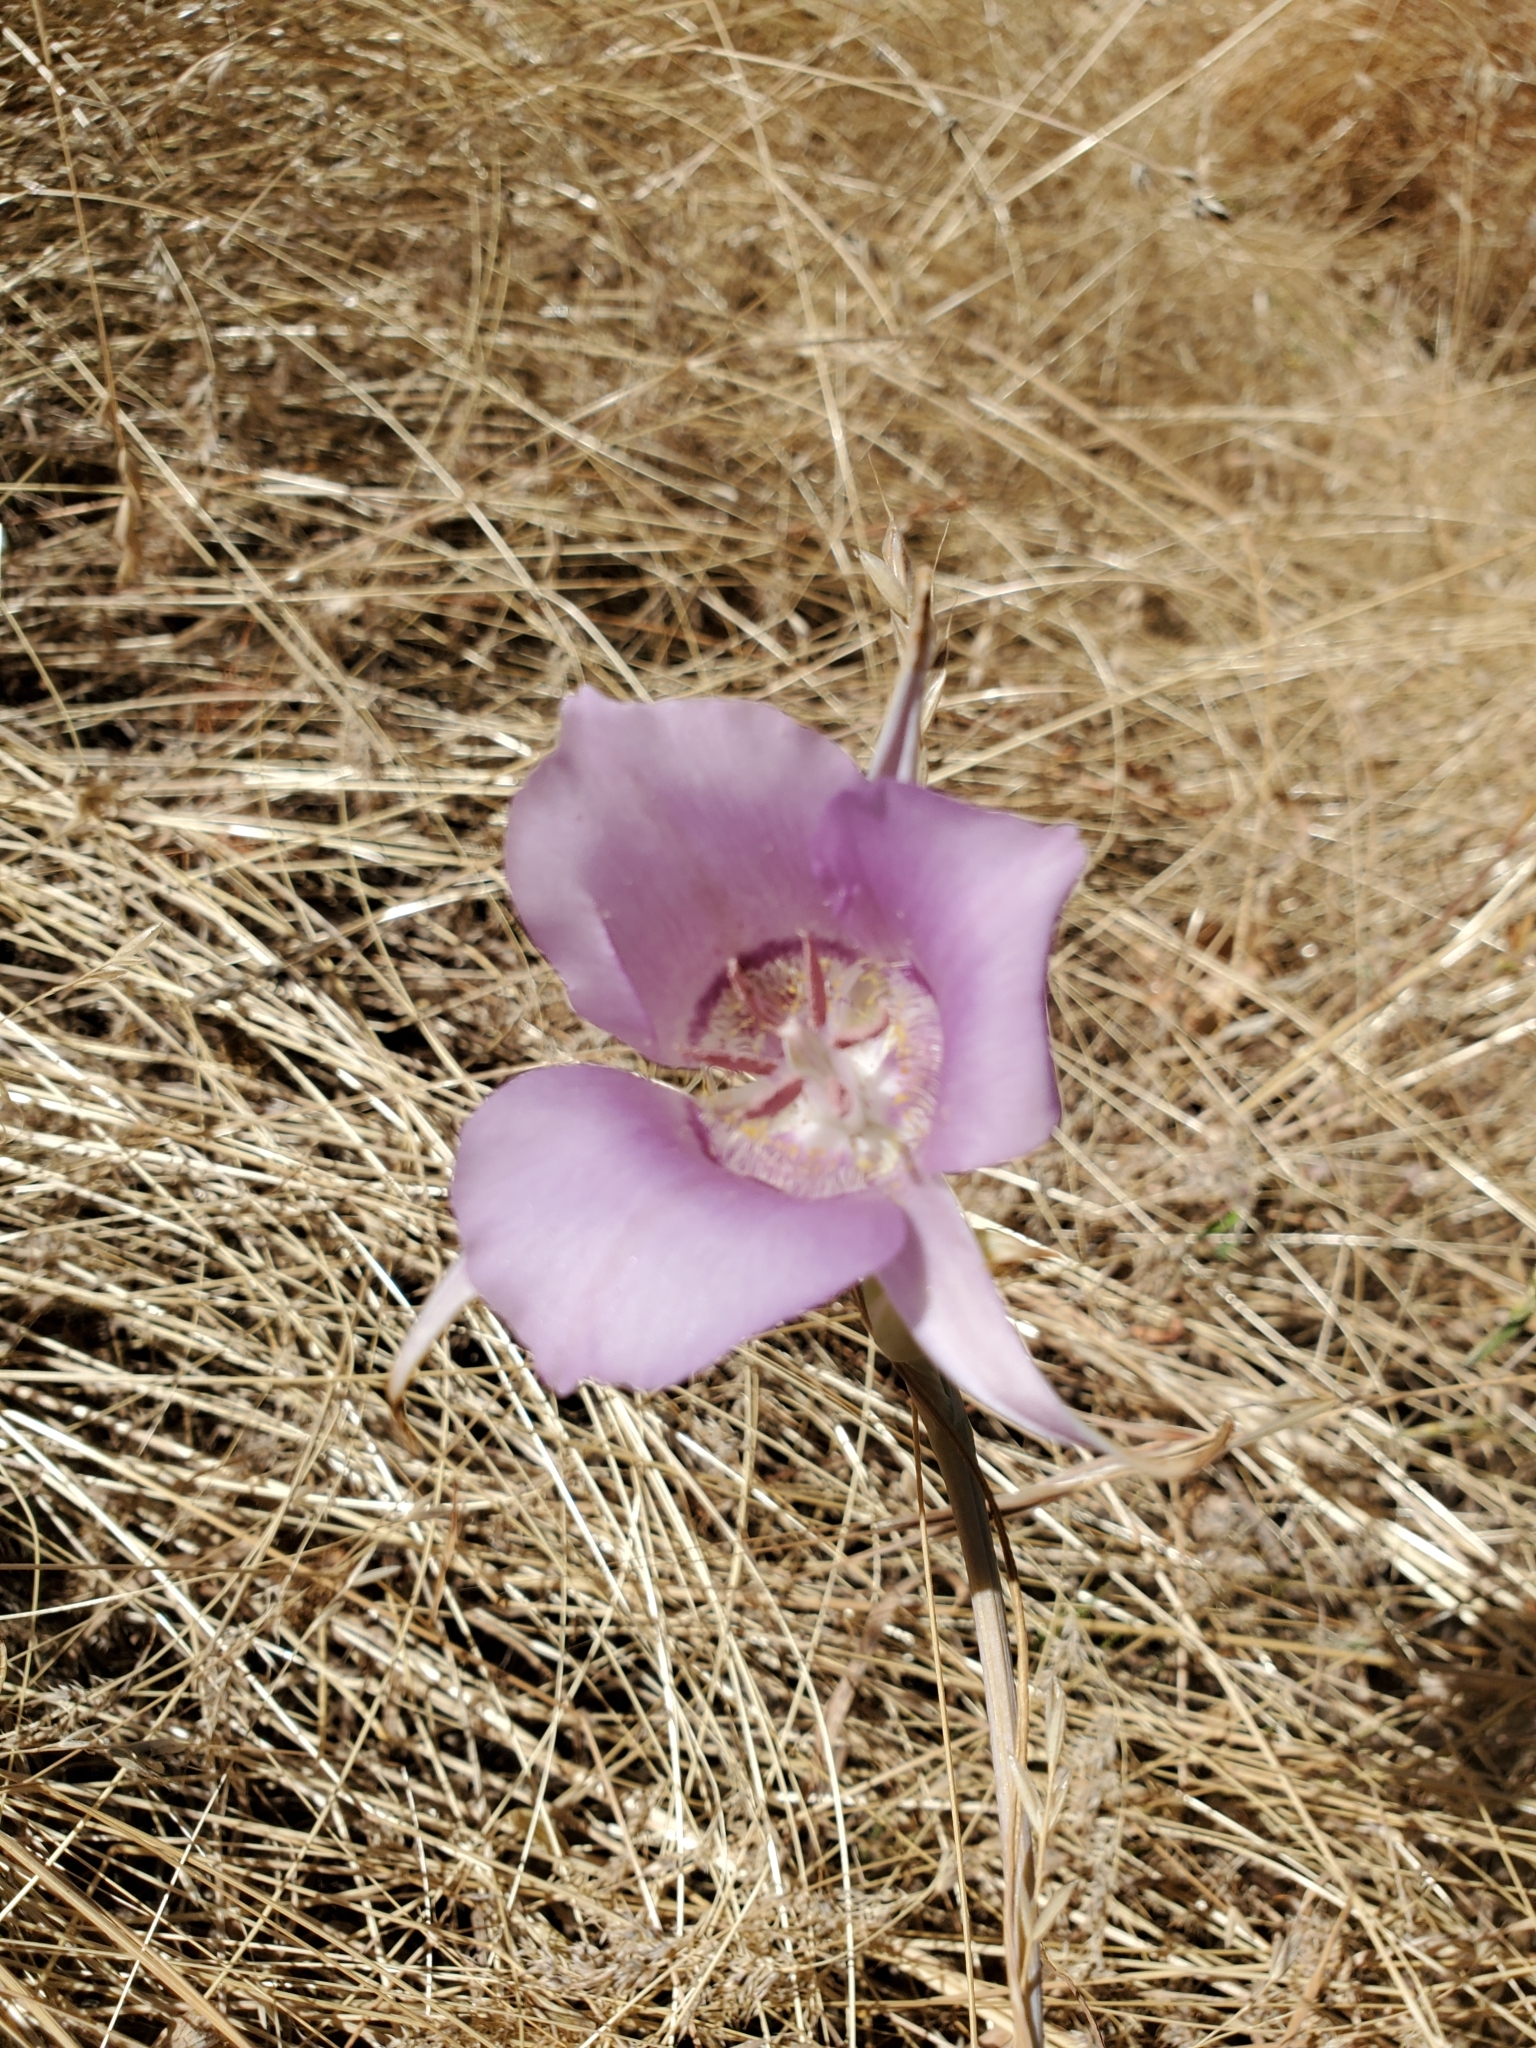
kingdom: Plantae
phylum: Tracheophyta
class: Liliopsida
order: Liliales
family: Liliaceae
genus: Calochortus
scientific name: Calochortus macrocarpus
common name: Green-band mariposa lily
